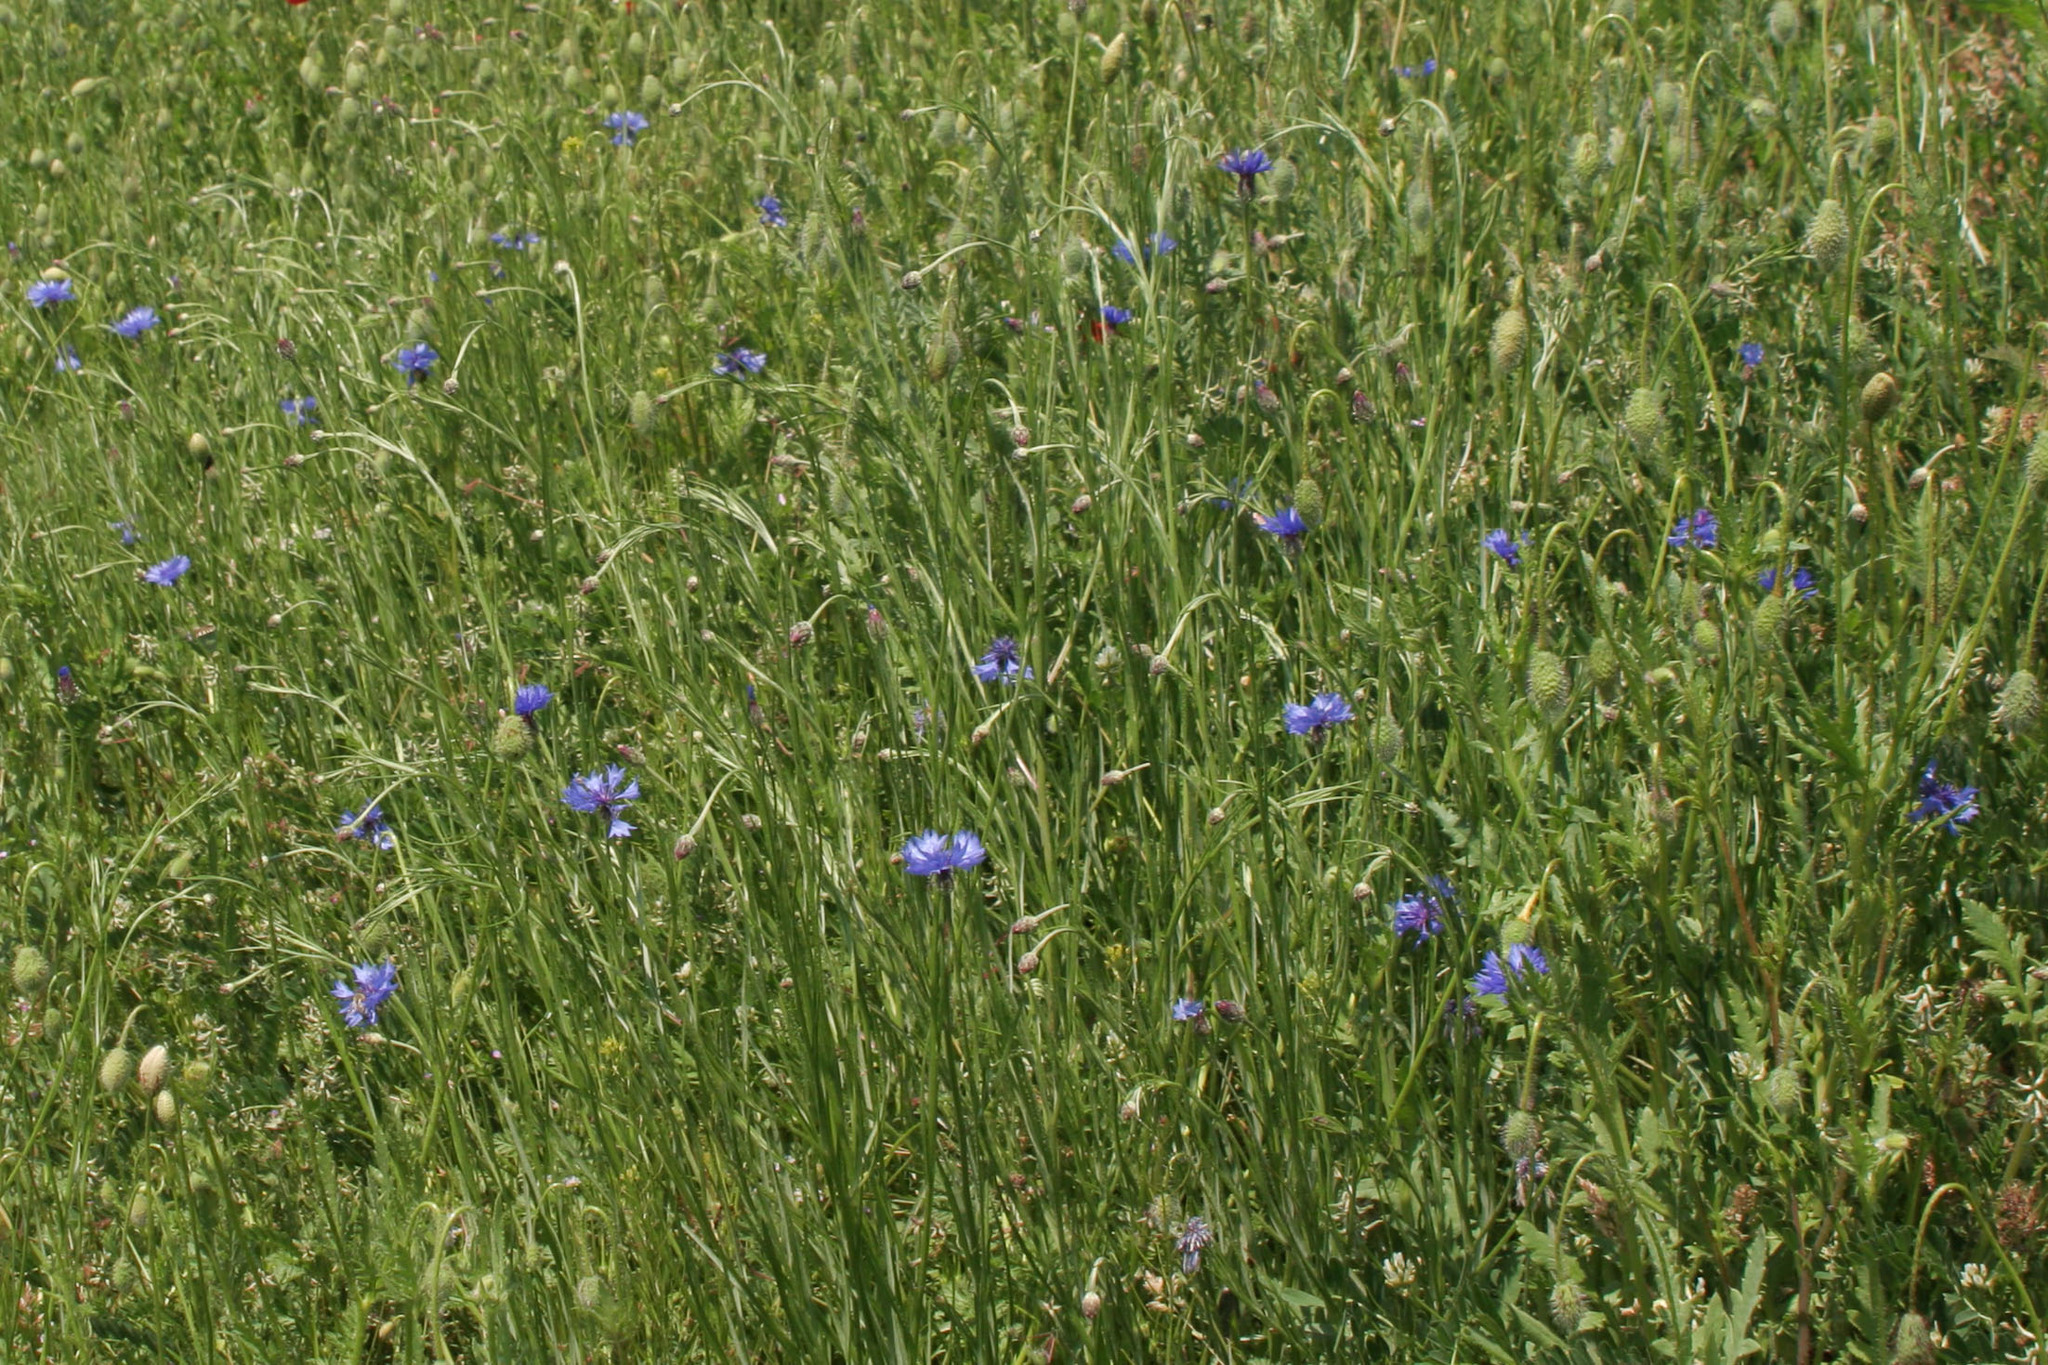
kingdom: Plantae
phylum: Tracheophyta
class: Magnoliopsida
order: Asterales
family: Asteraceae
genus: Centaurea
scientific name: Centaurea cyanus
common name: Cornflower
